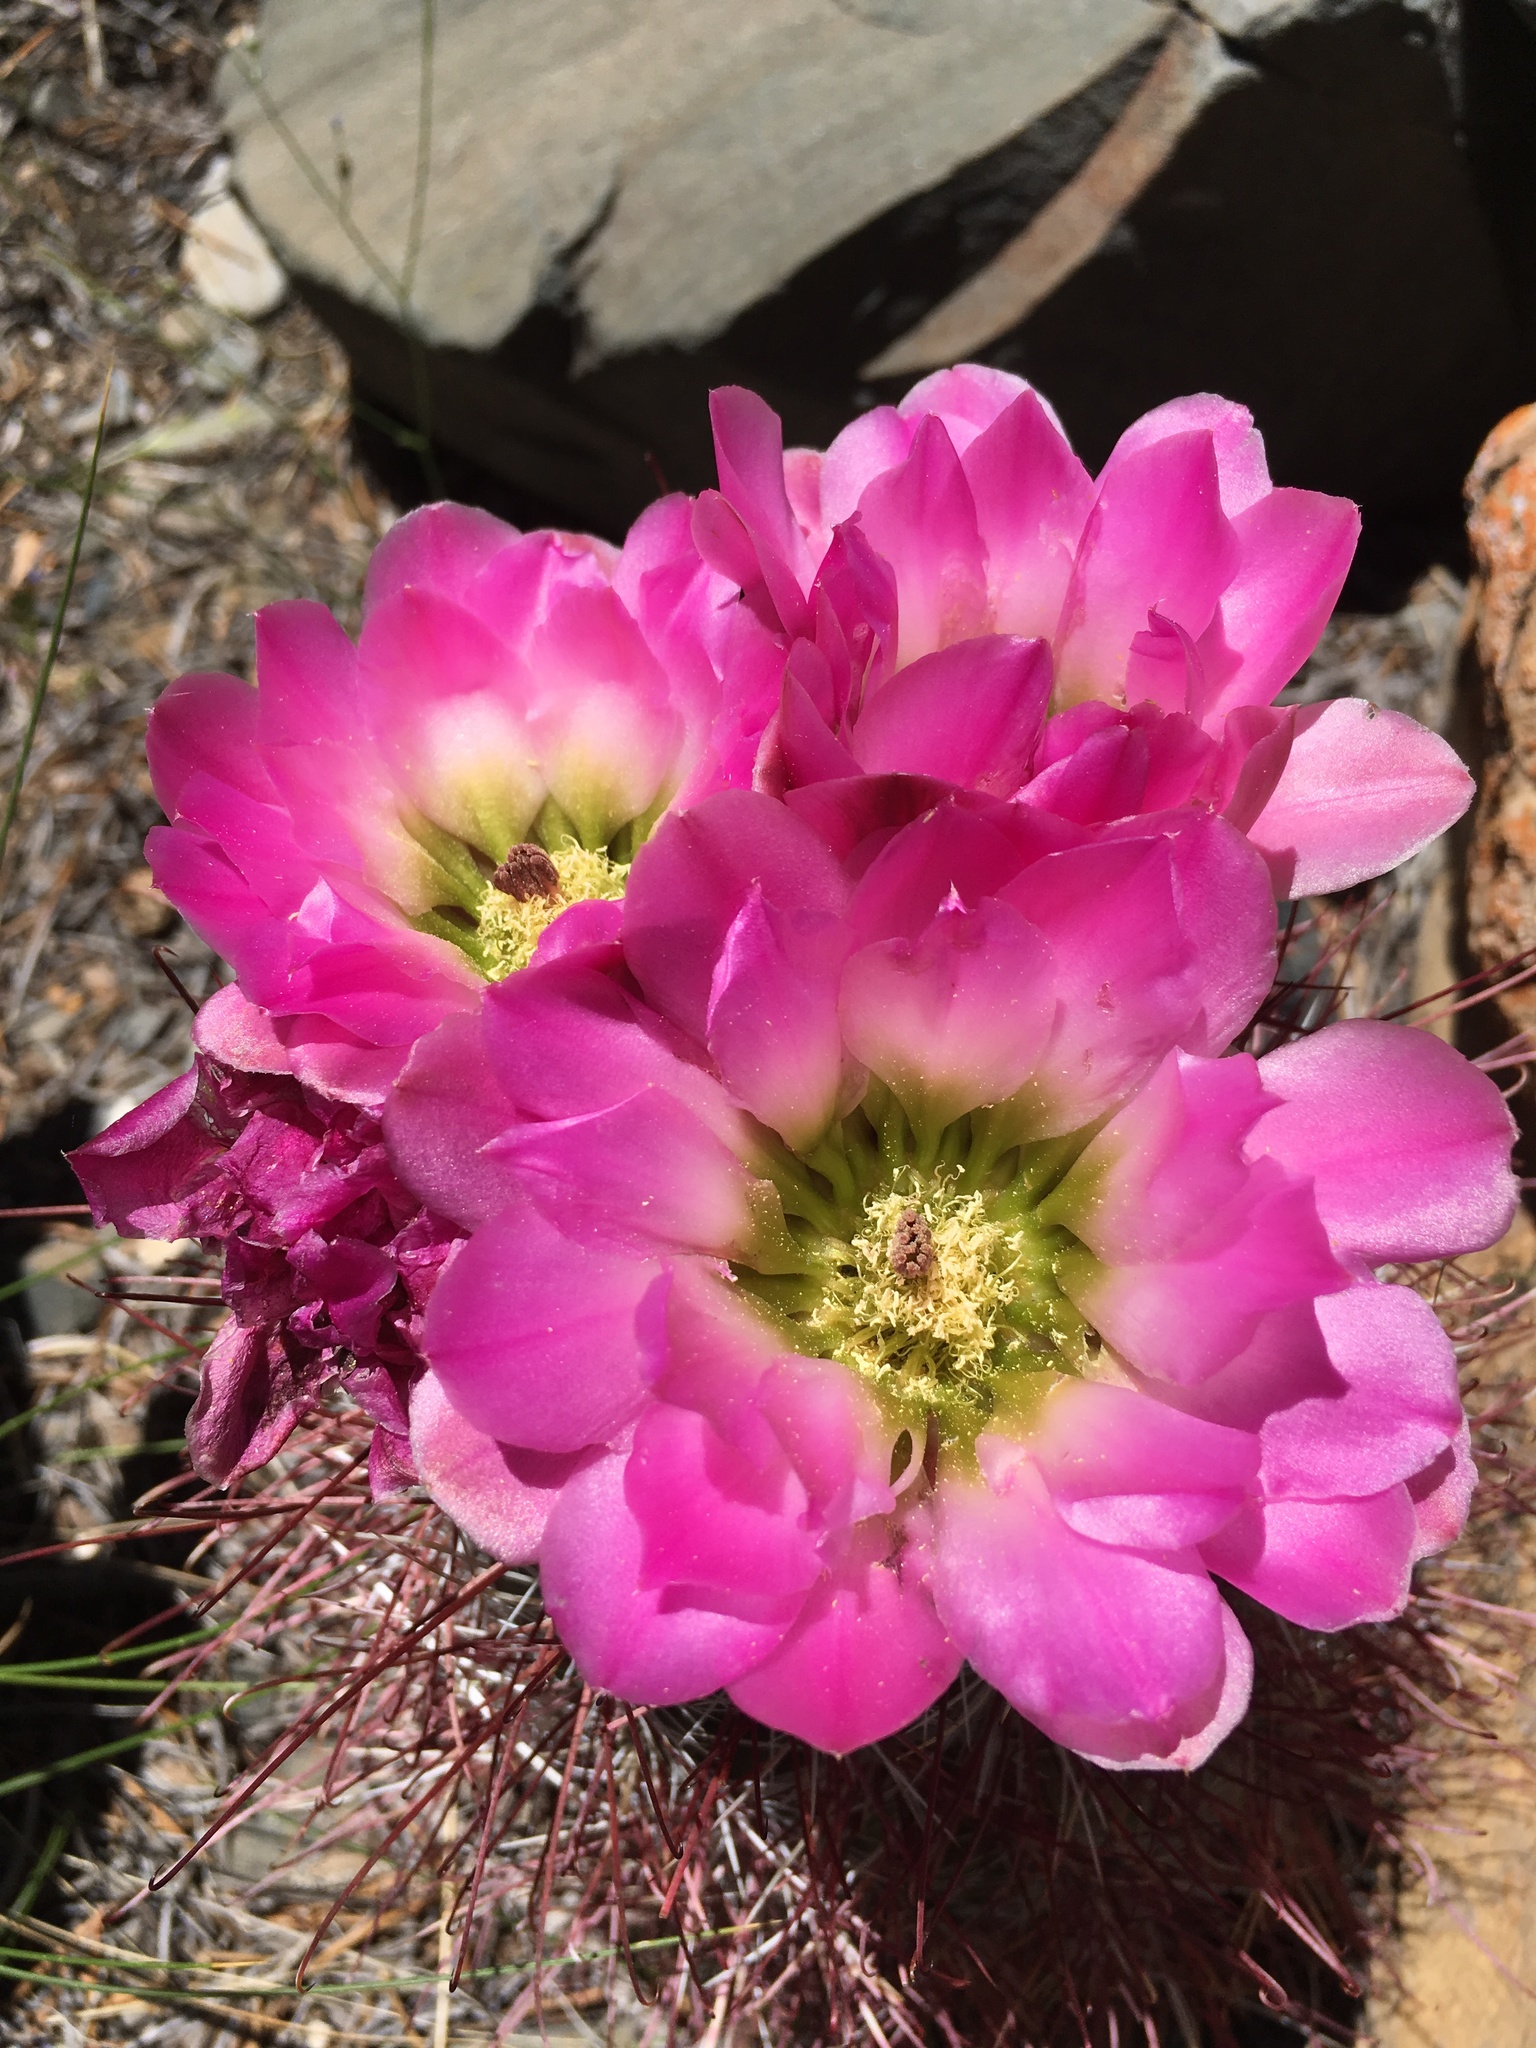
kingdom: Plantae
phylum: Tracheophyta
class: Magnoliopsida
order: Caryophyllales
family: Cactaceae
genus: Sclerocactus
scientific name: Sclerocactus polyancistrus
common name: Mohave fishhook cactus
